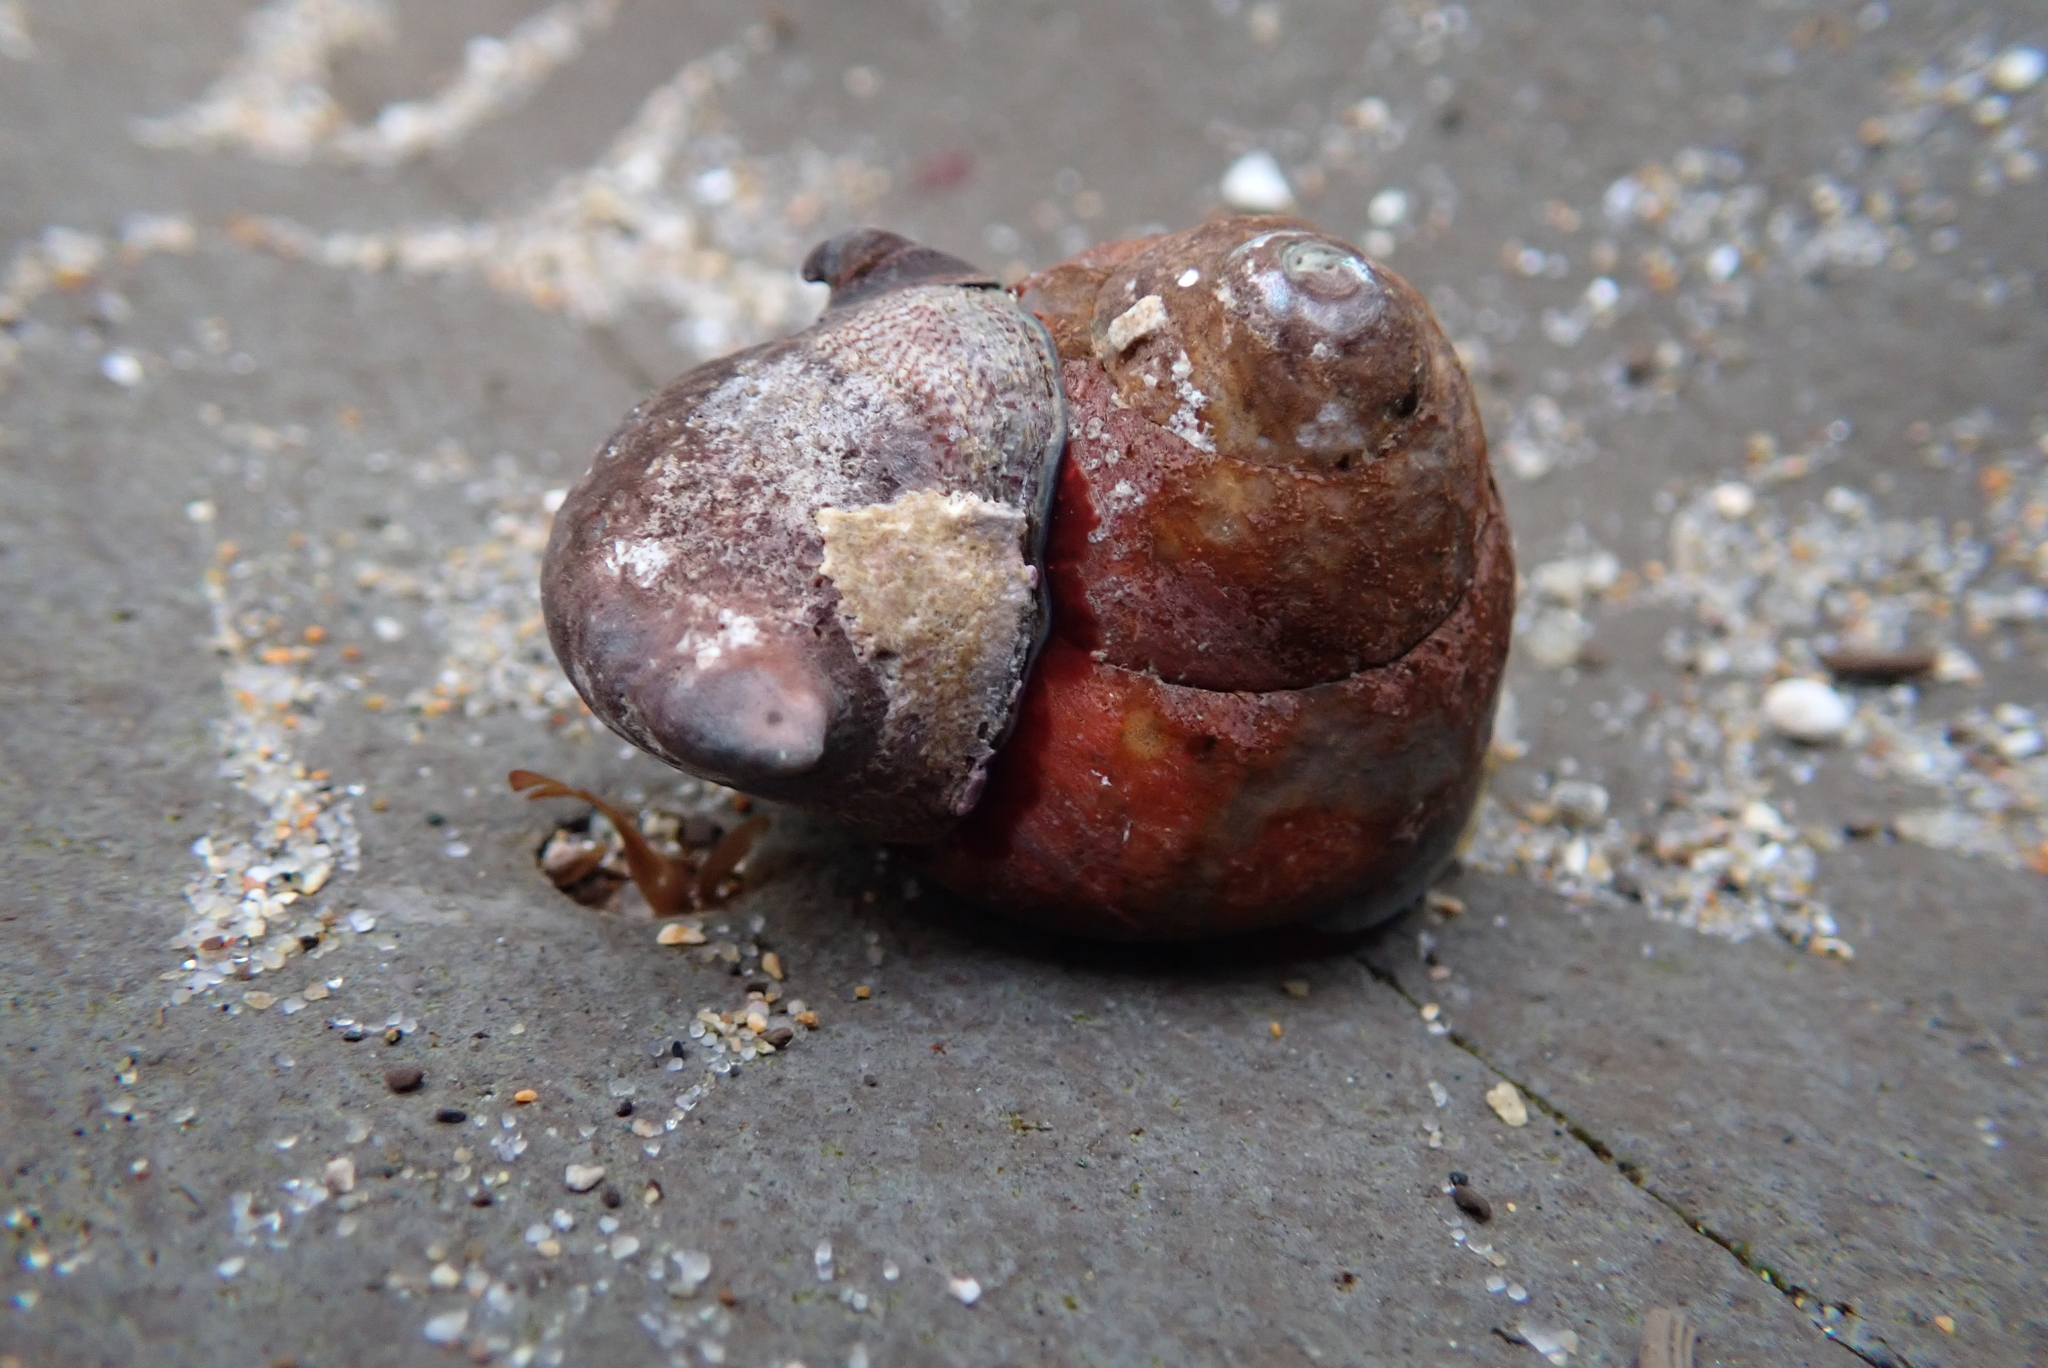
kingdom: Animalia
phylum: Mollusca
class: Gastropoda
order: Trochida
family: Tegulidae
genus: Tegula
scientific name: Tegula brunnea
